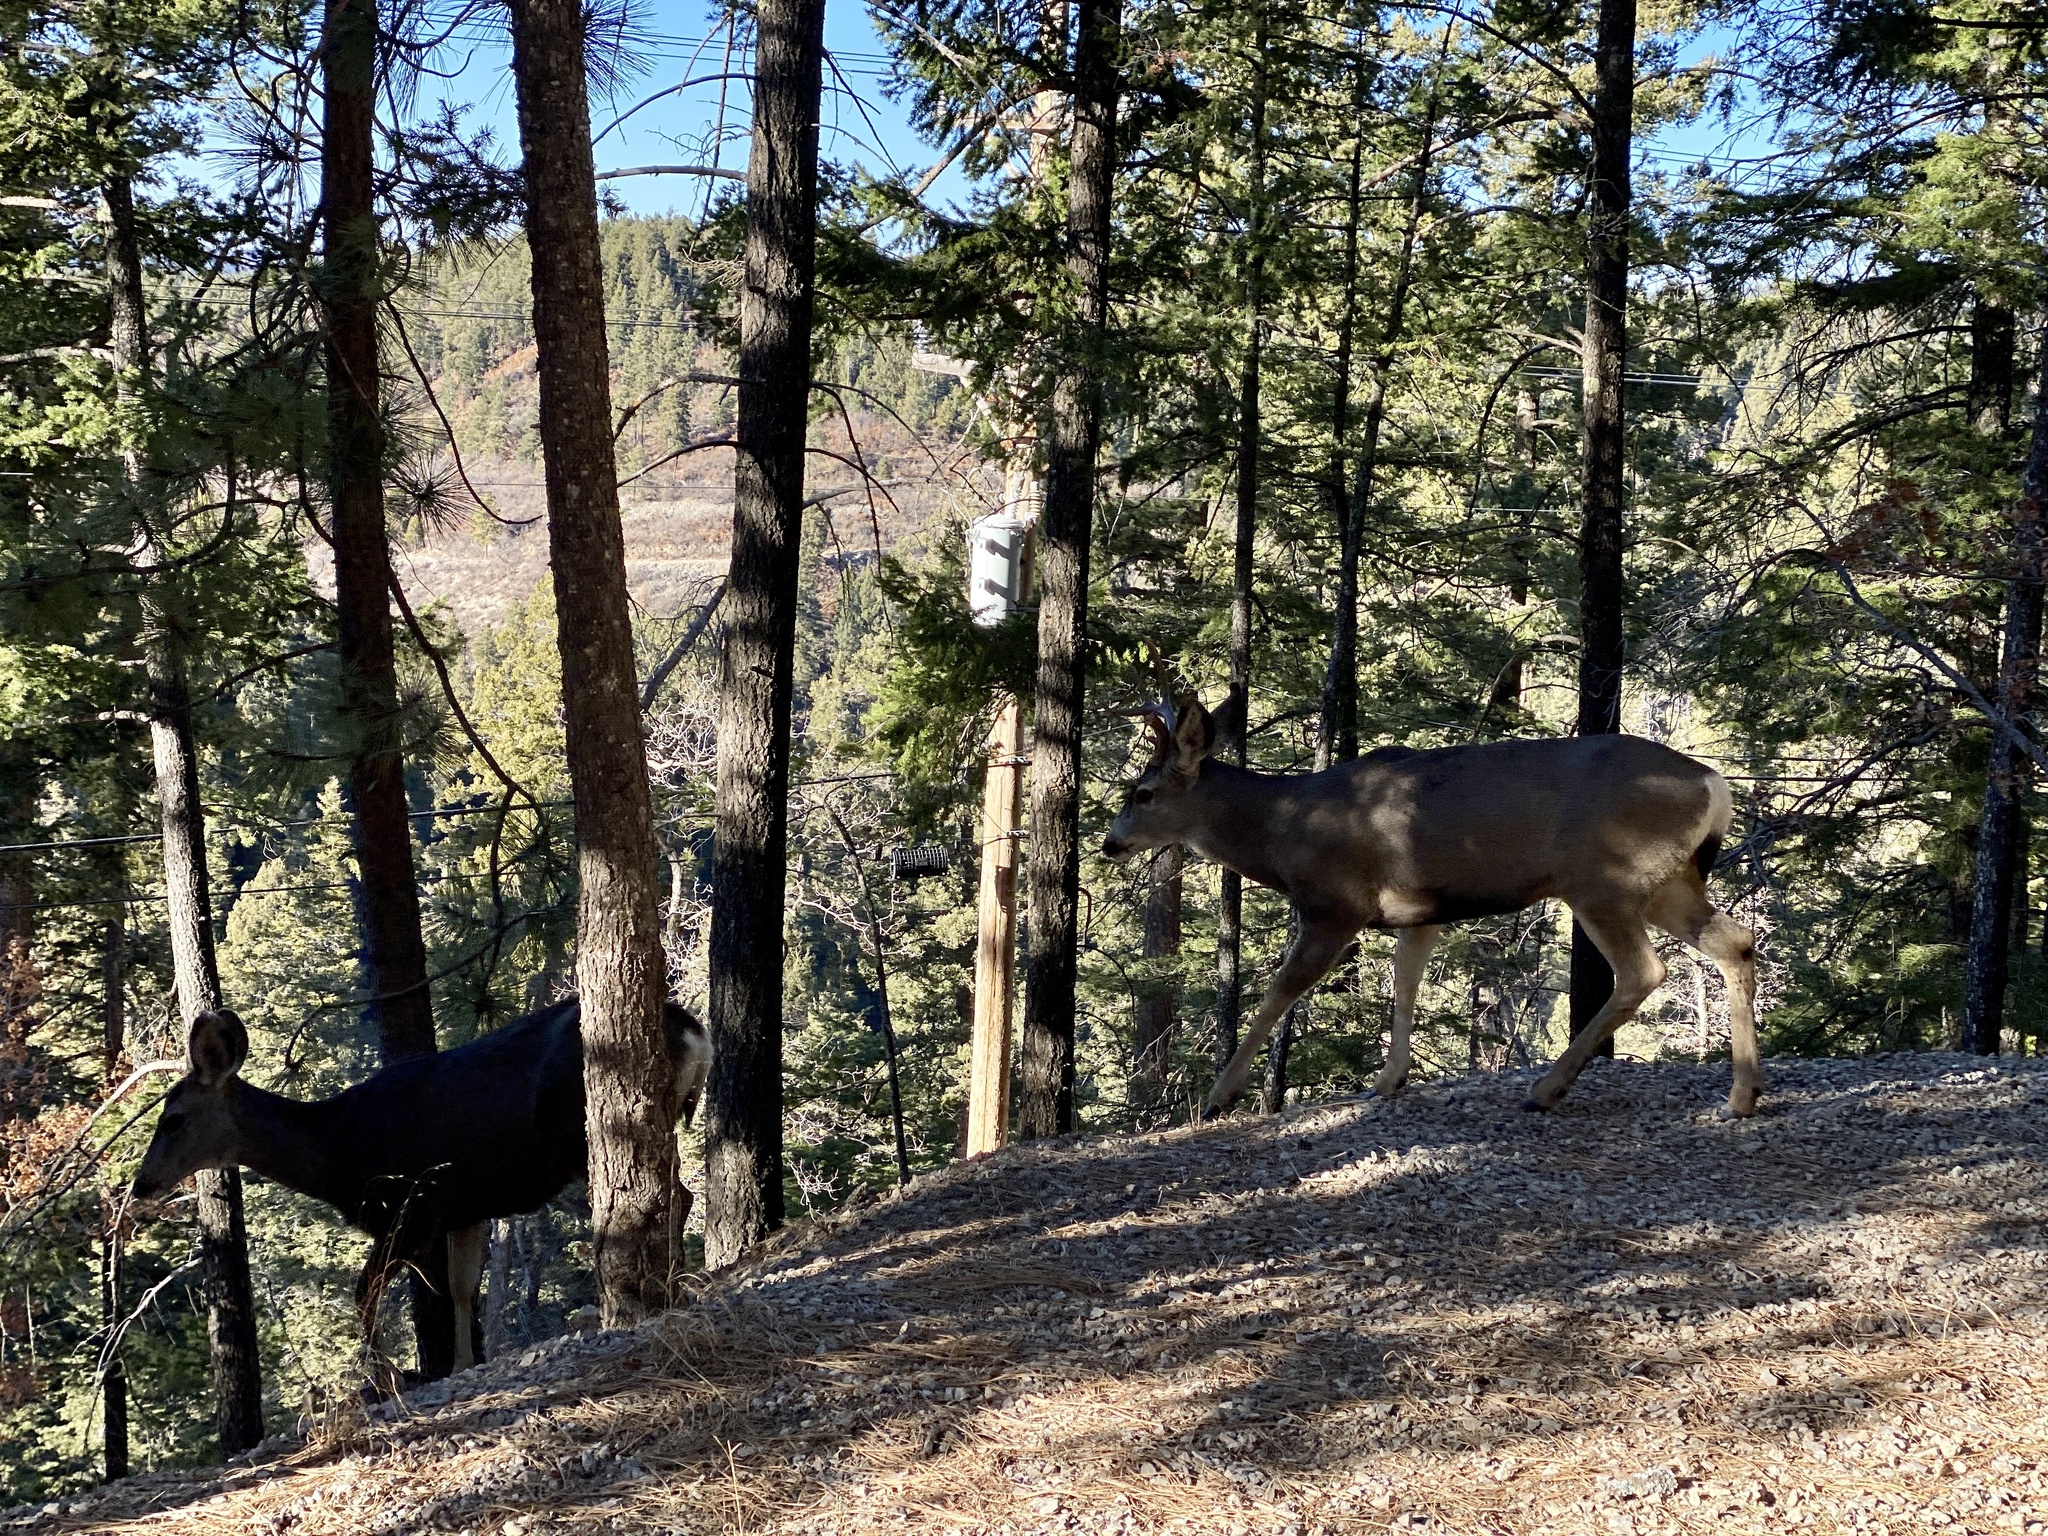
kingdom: Animalia
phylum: Chordata
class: Mammalia
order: Artiodactyla
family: Cervidae
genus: Odocoileus
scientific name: Odocoileus hemionus
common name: Mule deer
